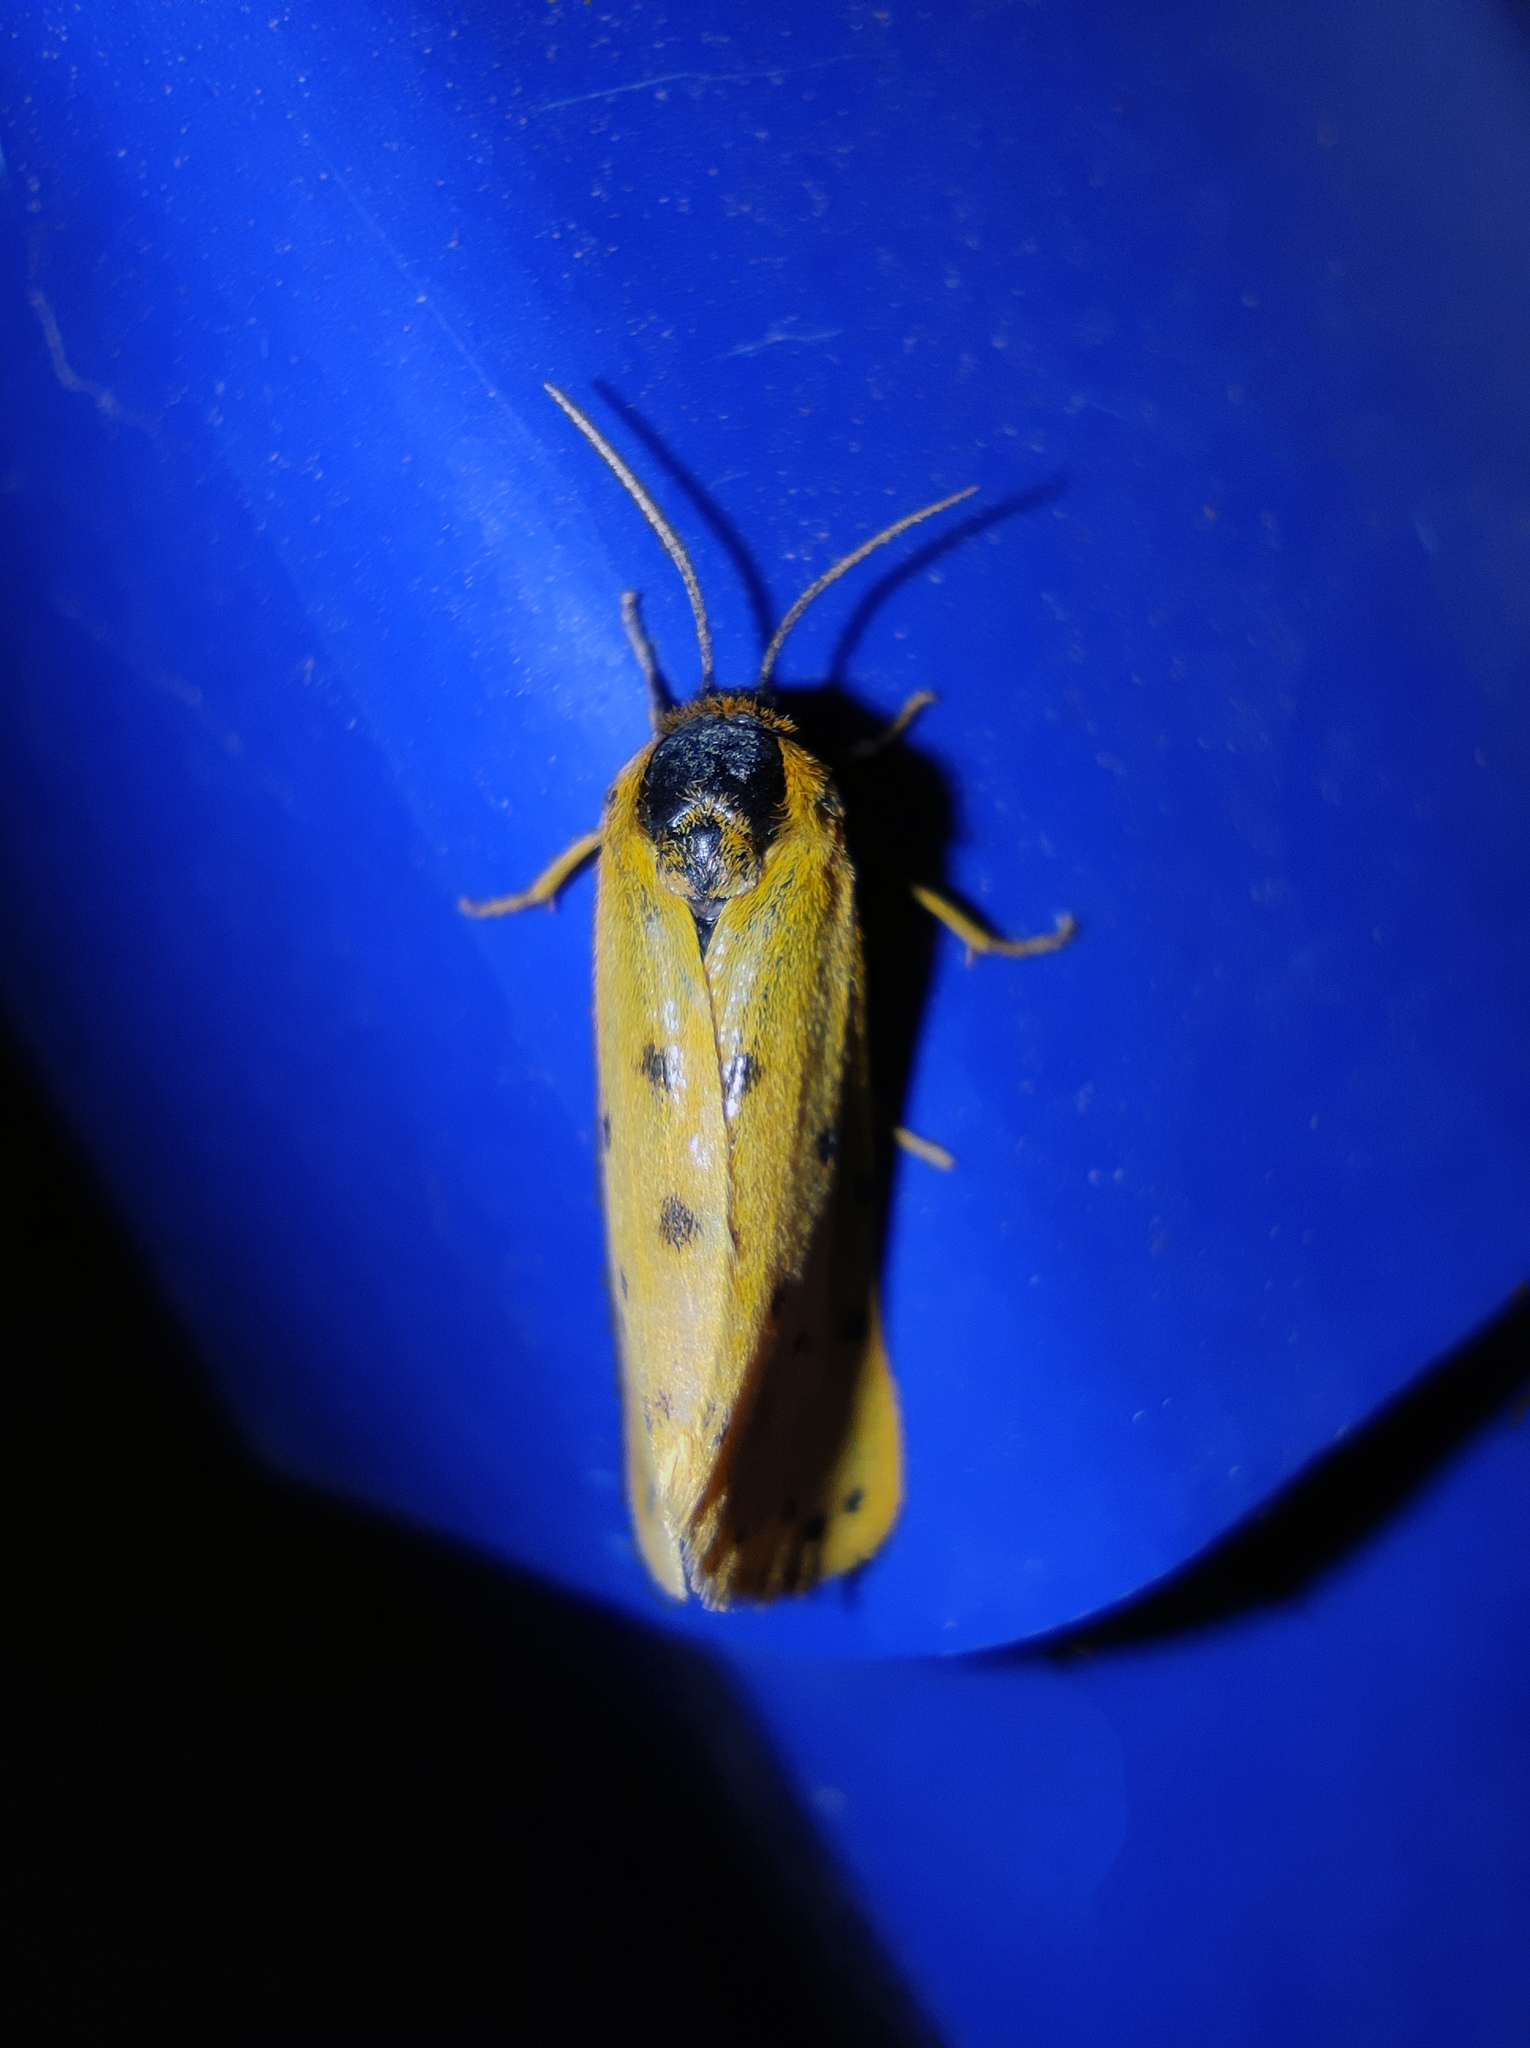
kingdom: Animalia
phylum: Arthropoda
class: Insecta
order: Lepidoptera
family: Erebidae
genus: Setina
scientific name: Setina irrorella
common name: Dew moth
